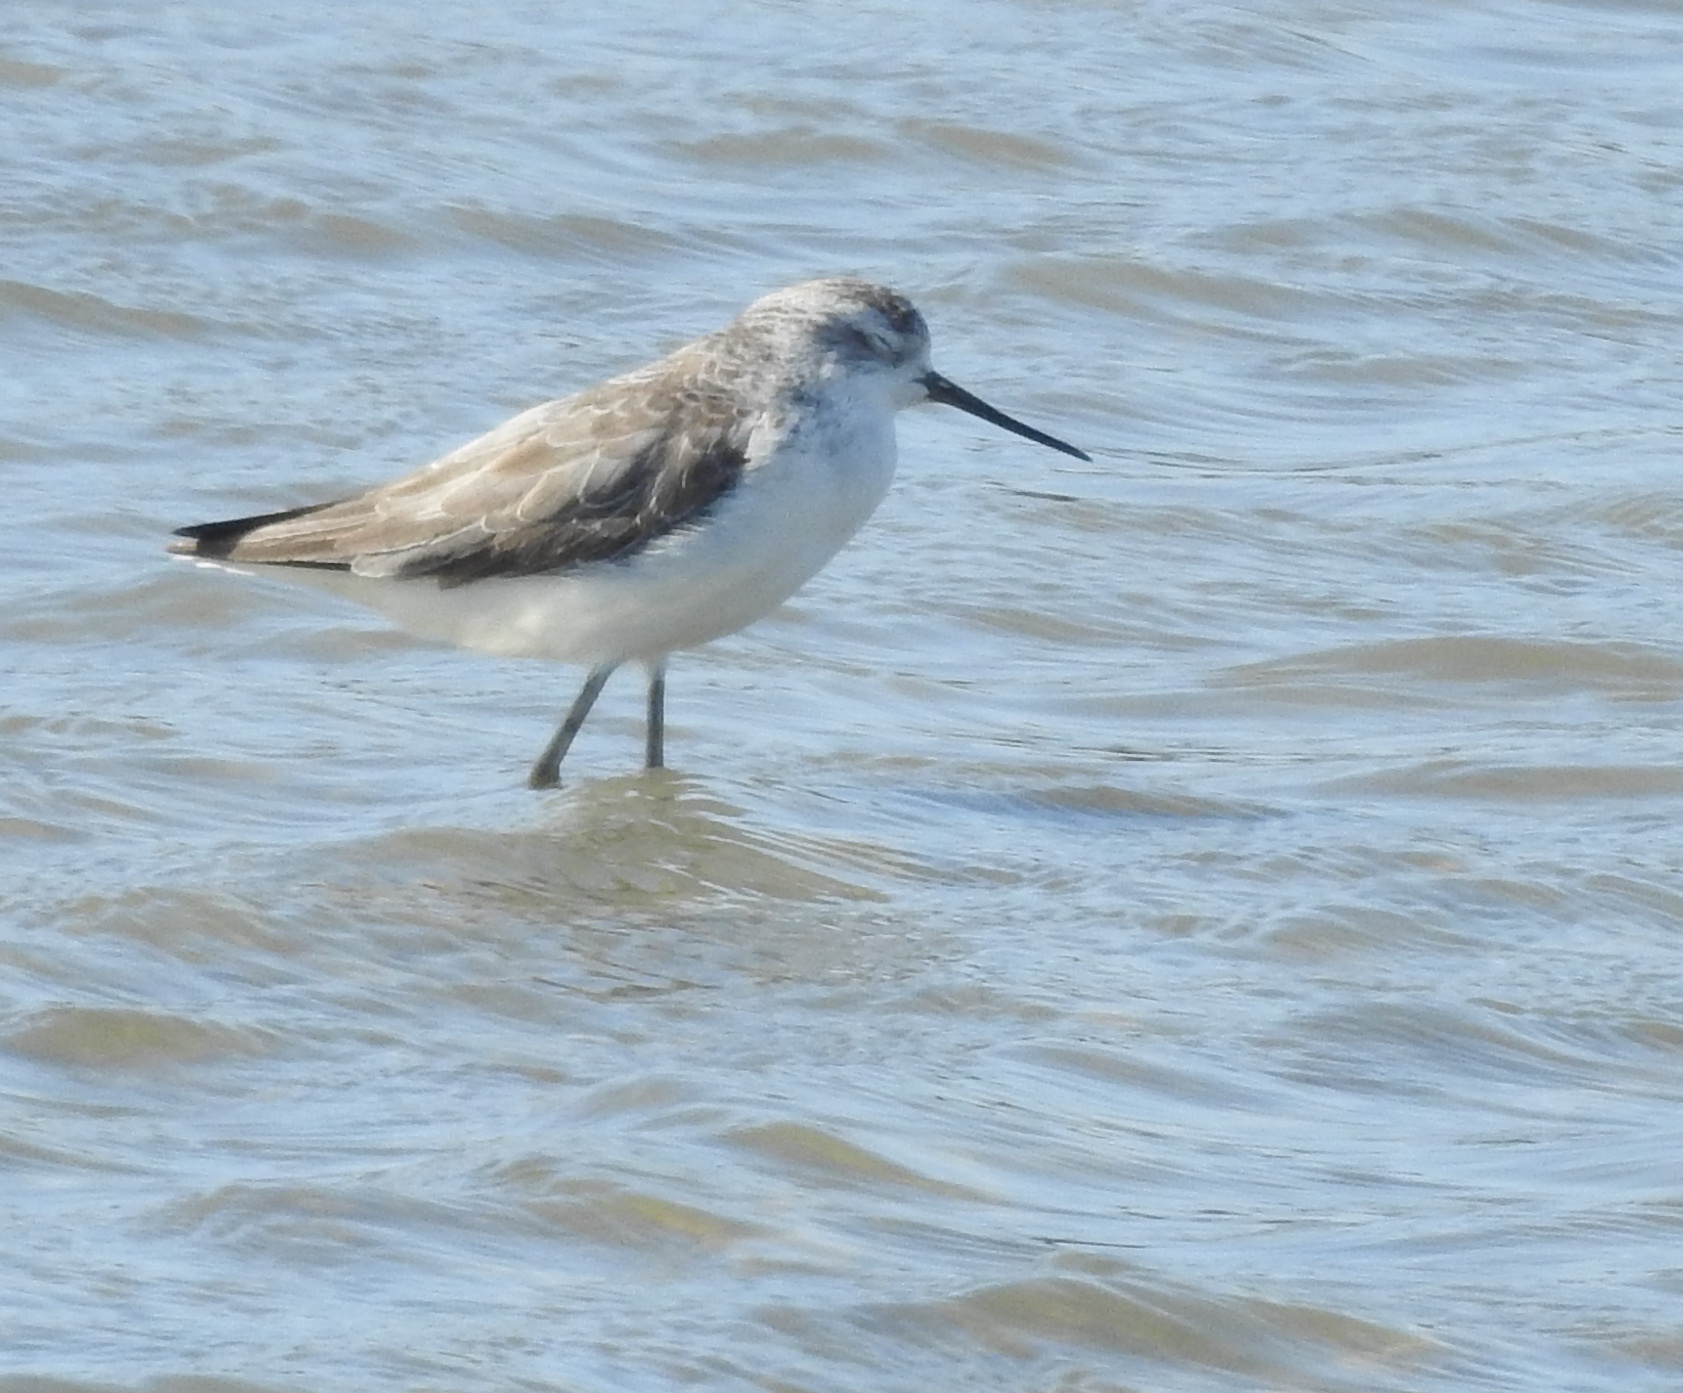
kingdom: Animalia
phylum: Chordata
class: Aves
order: Charadriiformes
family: Scolopacidae
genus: Tringa
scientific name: Tringa stagnatilis
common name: Marsh sandpiper
